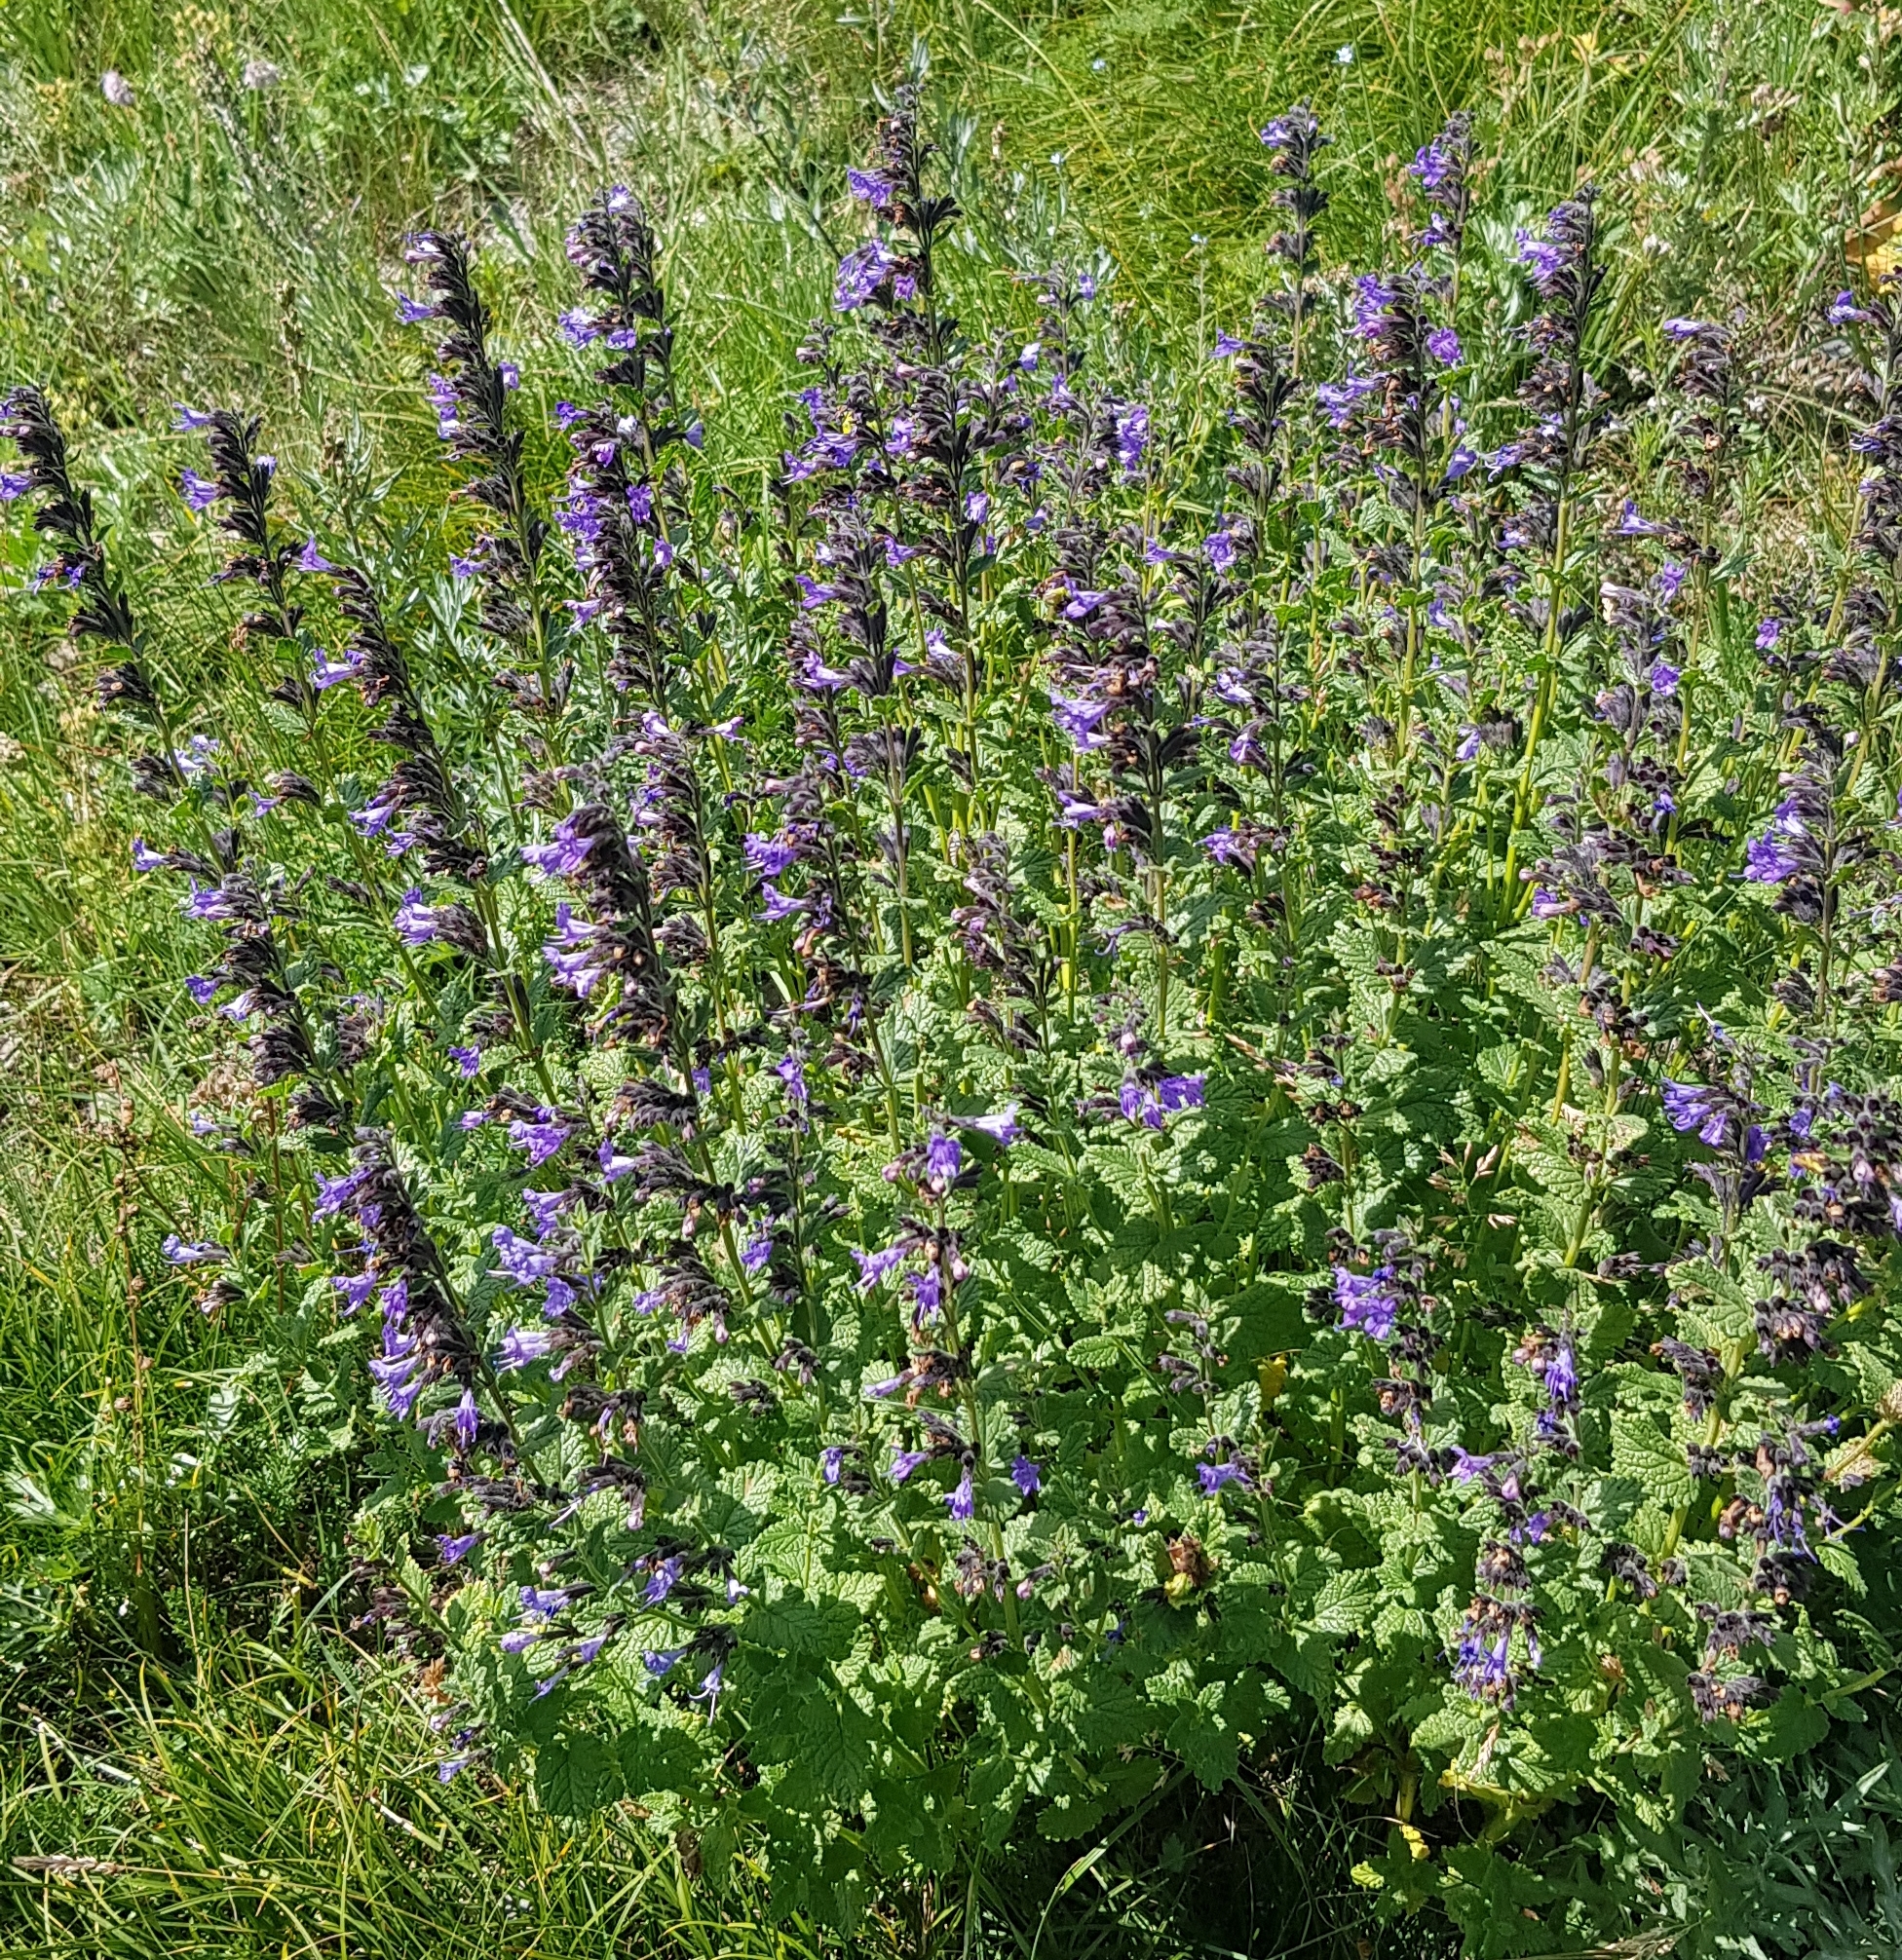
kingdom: Plantae
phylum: Tracheophyta
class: Magnoliopsida
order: Lamiales
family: Lamiaceae
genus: Nepeta
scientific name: Nepeta lophanthus
